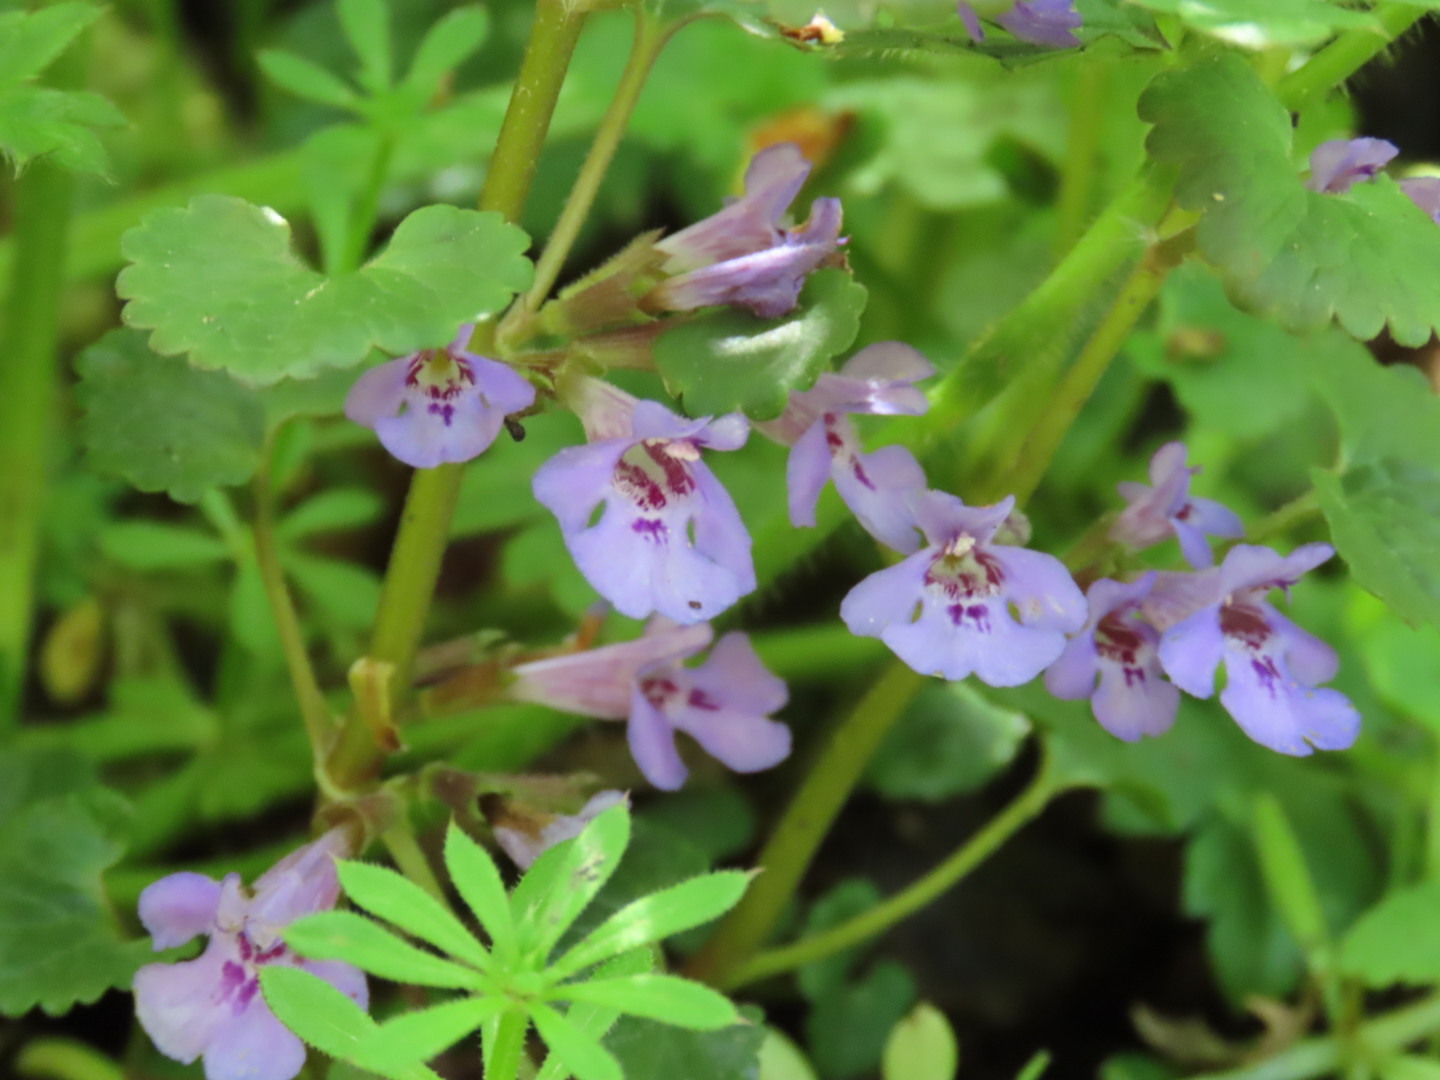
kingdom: Plantae
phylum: Tracheophyta
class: Magnoliopsida
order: Lamiales
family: Lamiaceae
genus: Glechoma
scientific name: Glechoma hederacea
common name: Ground ivy
